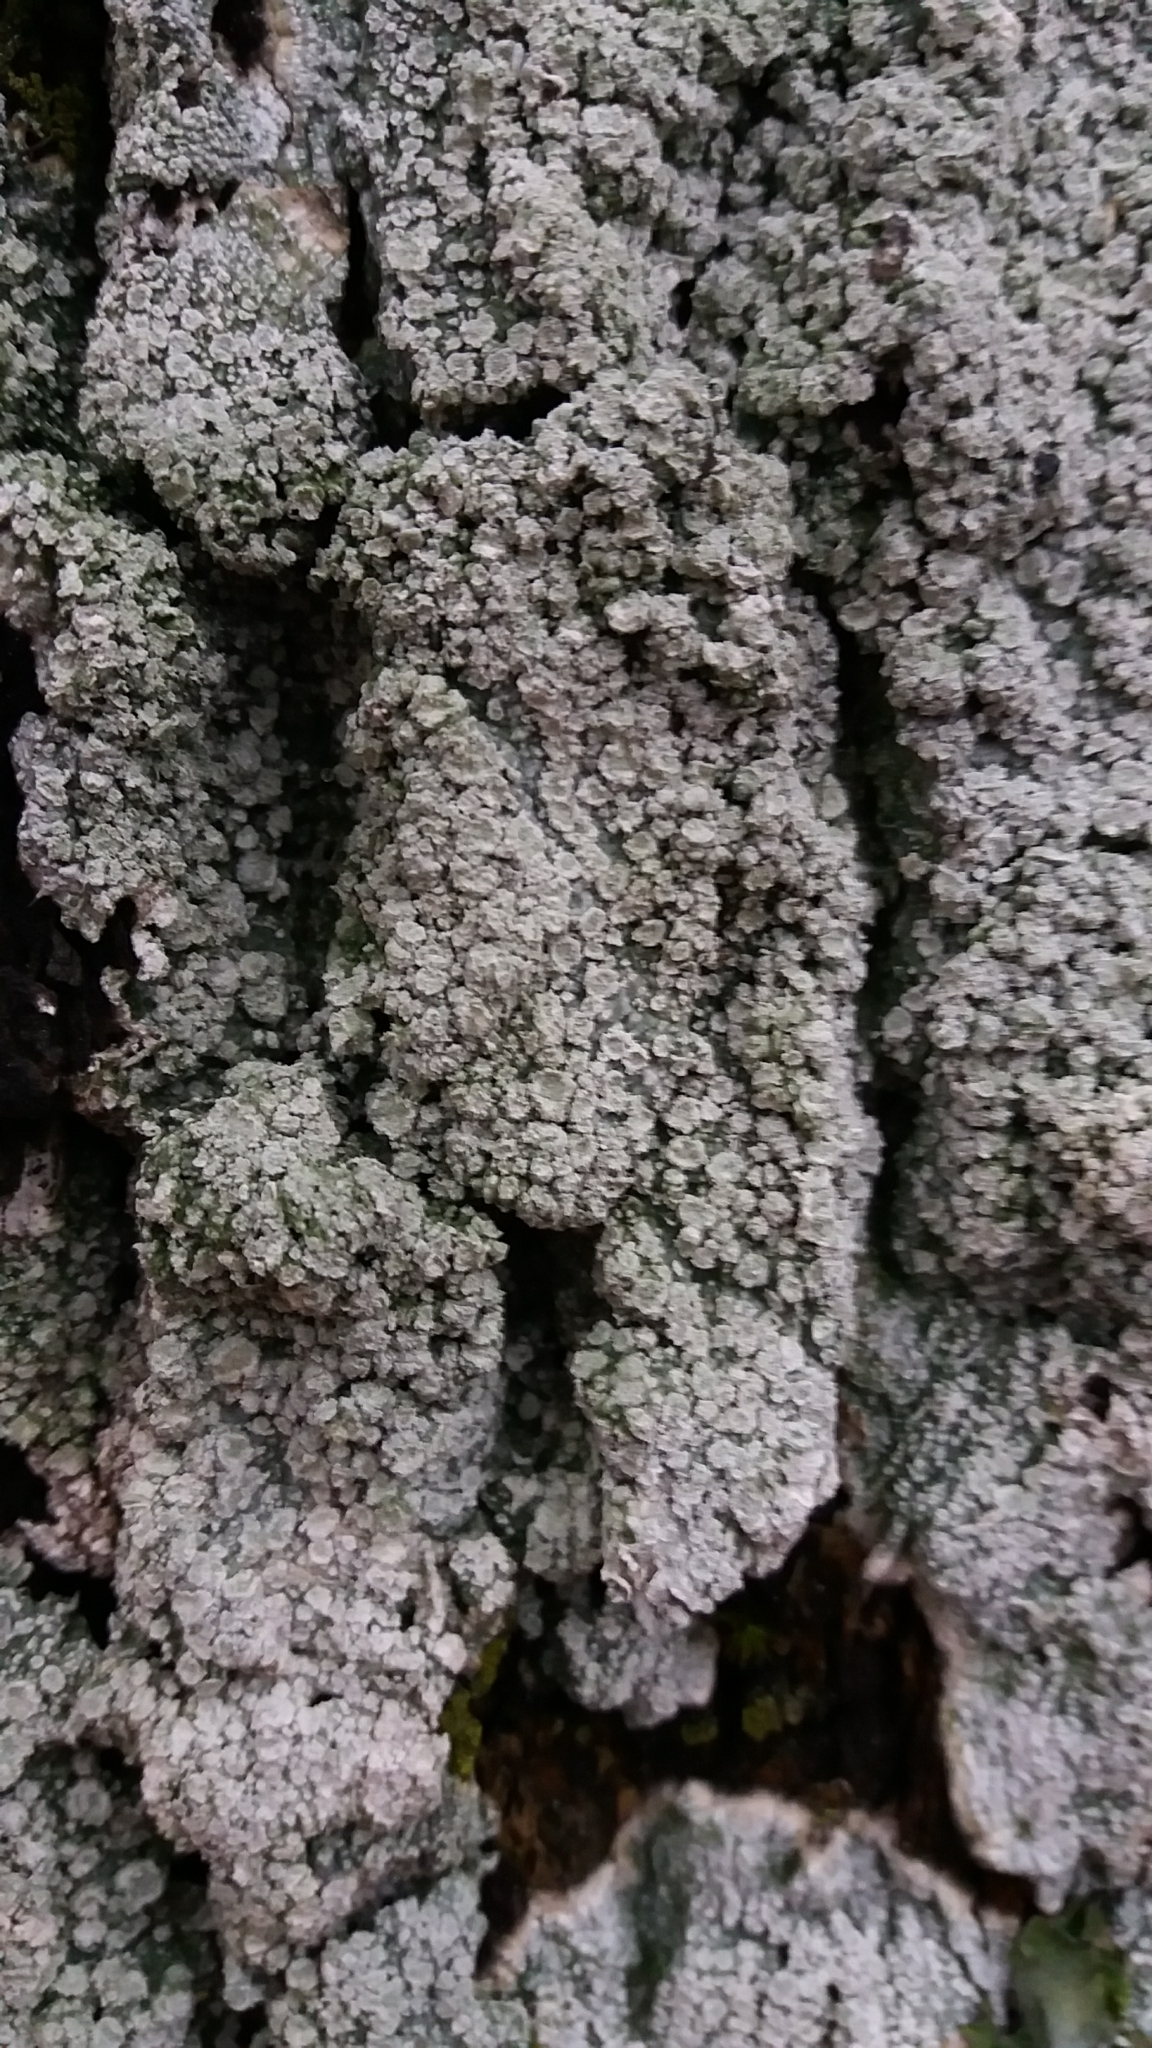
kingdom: Fungi
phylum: Ascomycota
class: Lecanoromycetes
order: Pertusariales
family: Pertusariaceae
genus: Lepra
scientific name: Lepra albescens
